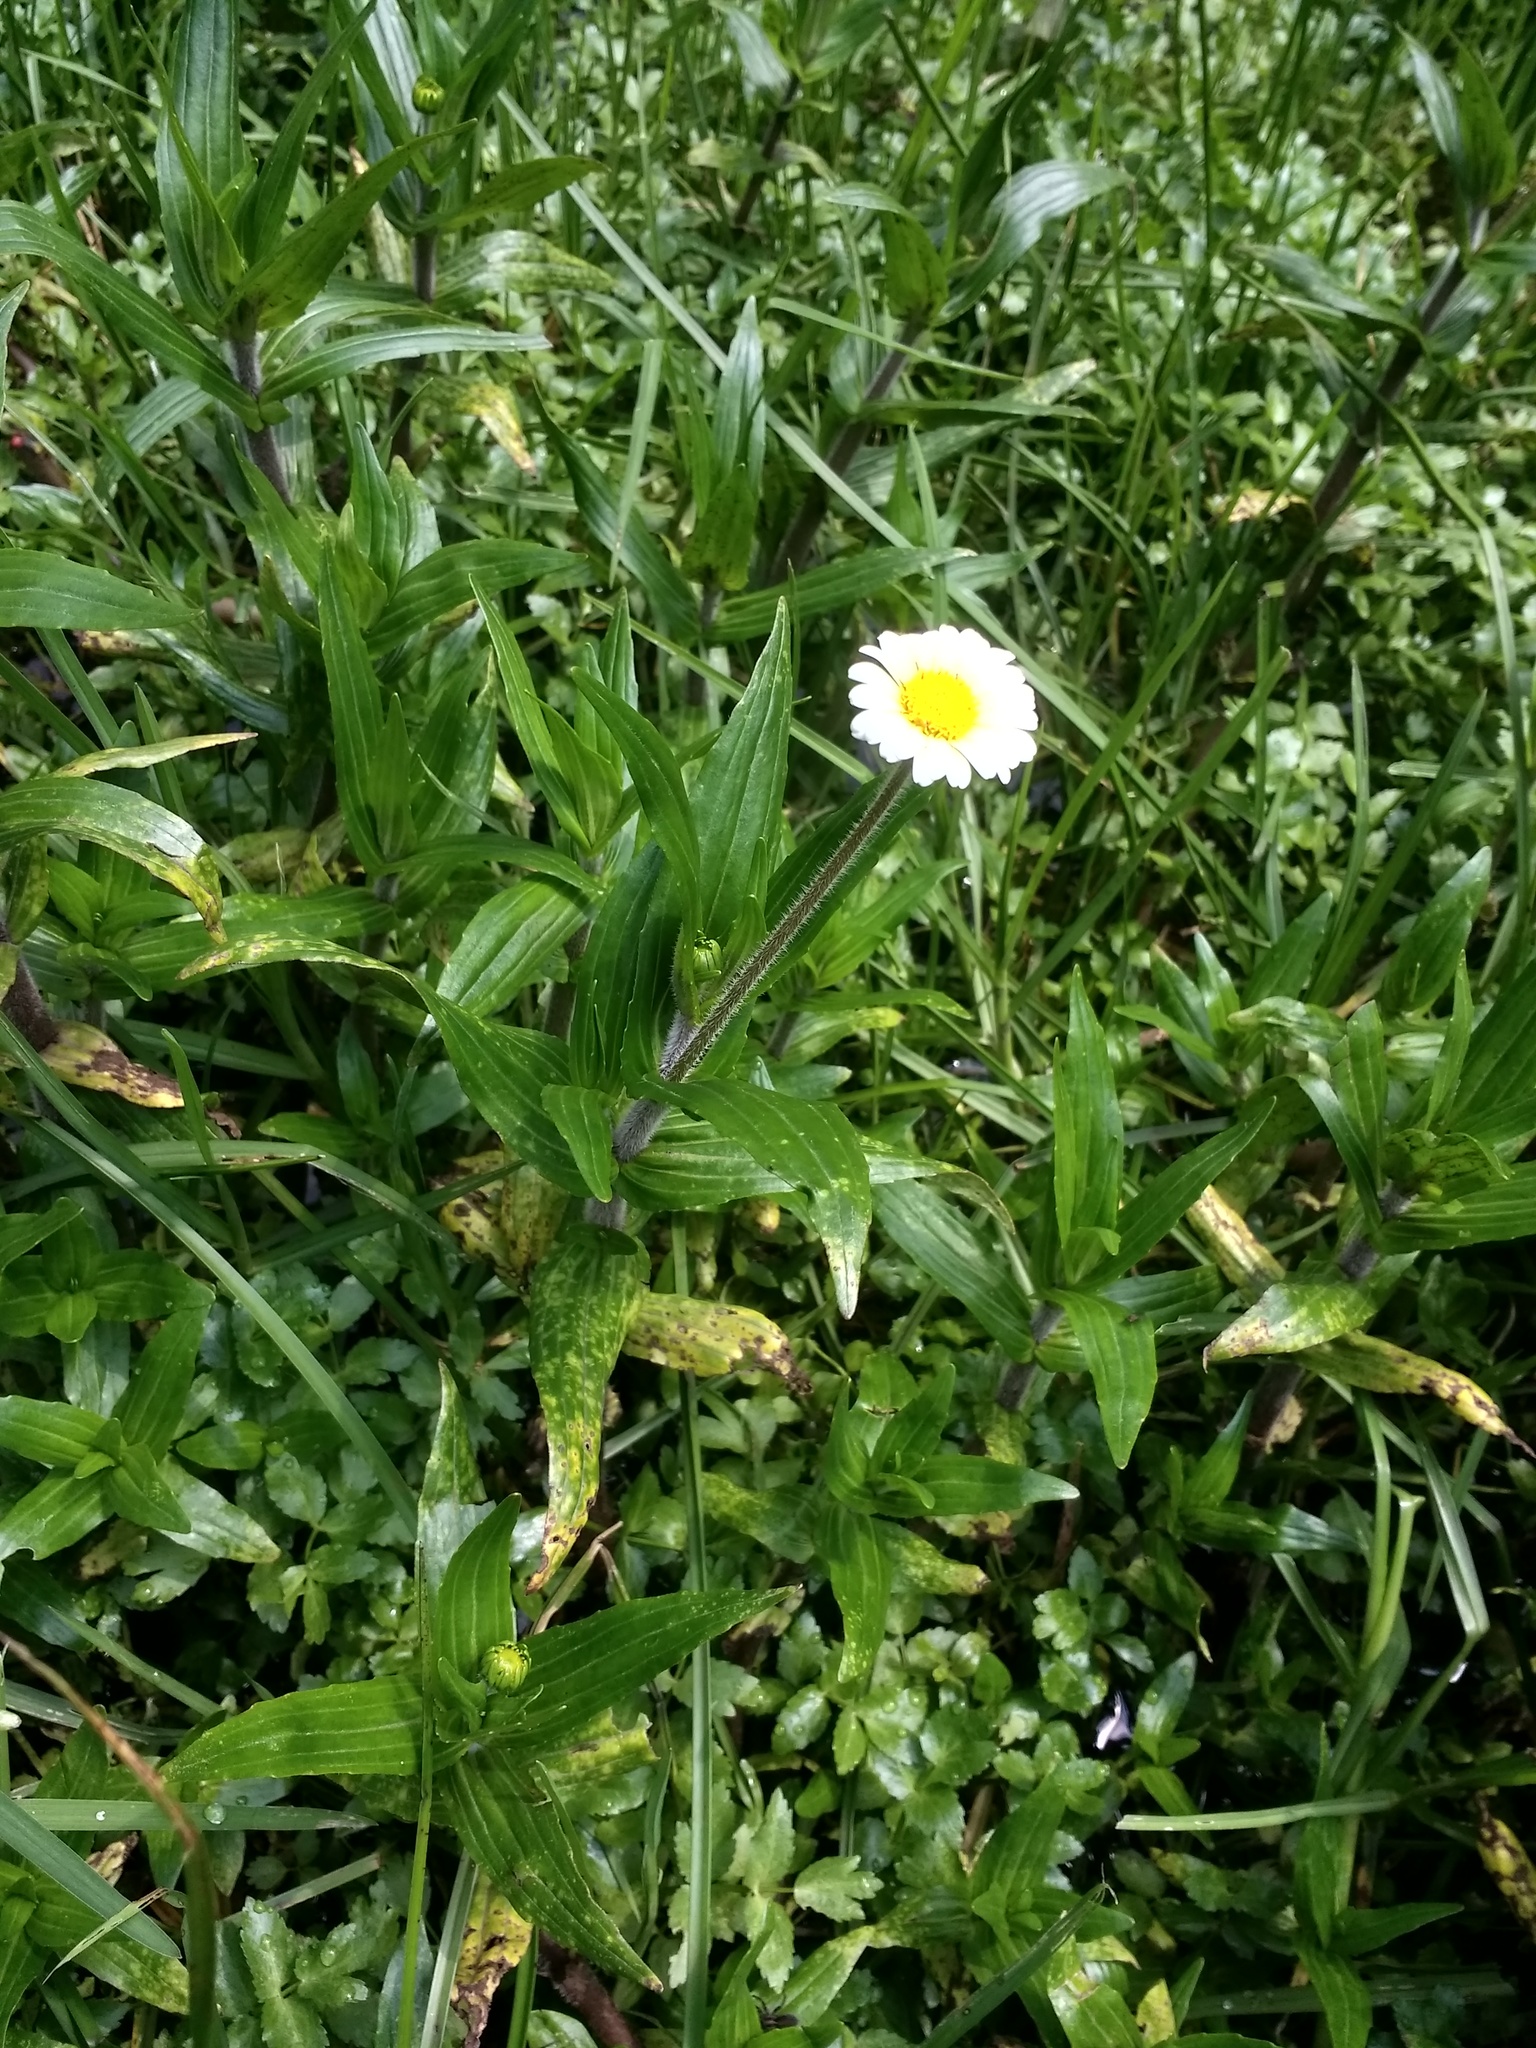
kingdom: Plantae
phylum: Tracheophyta
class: Magnoliopsida
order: Asterales
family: Asteraceae
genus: Jaegeria
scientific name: Jaegeria bellidiflora
